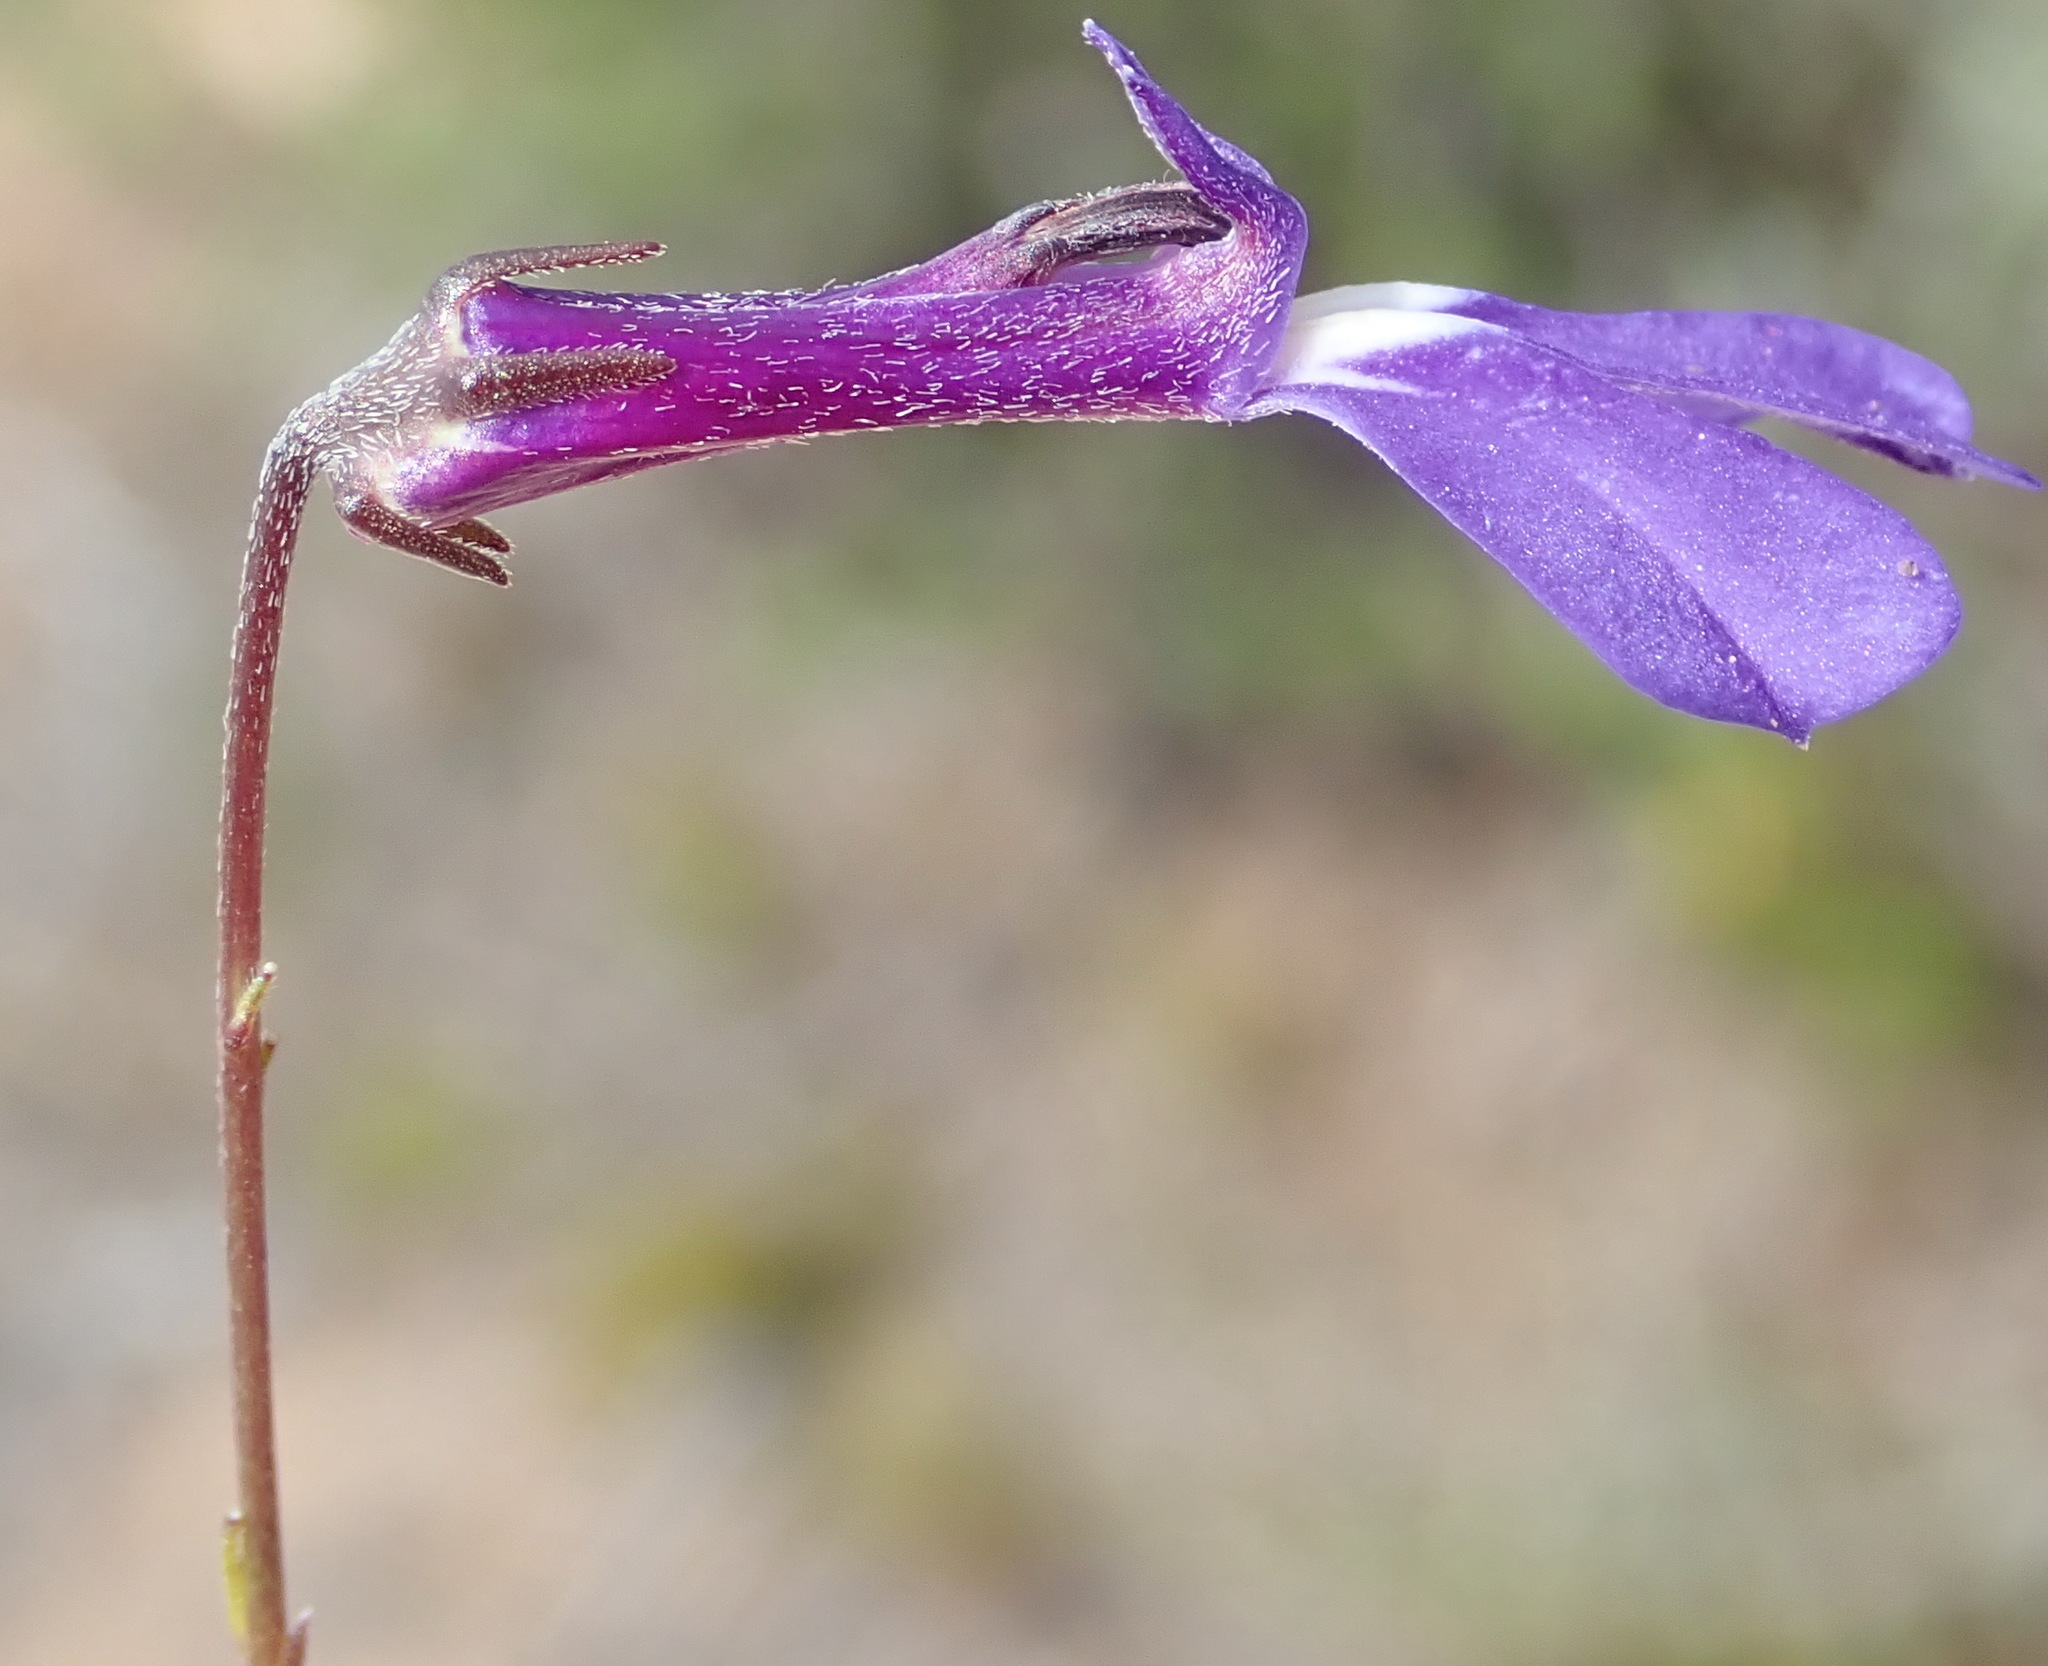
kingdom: Plantae
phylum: Tracheophyta
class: Magnoliopsida
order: Asterales
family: Campanulaceae
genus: Lobelia
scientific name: Lobelia tomentosa
